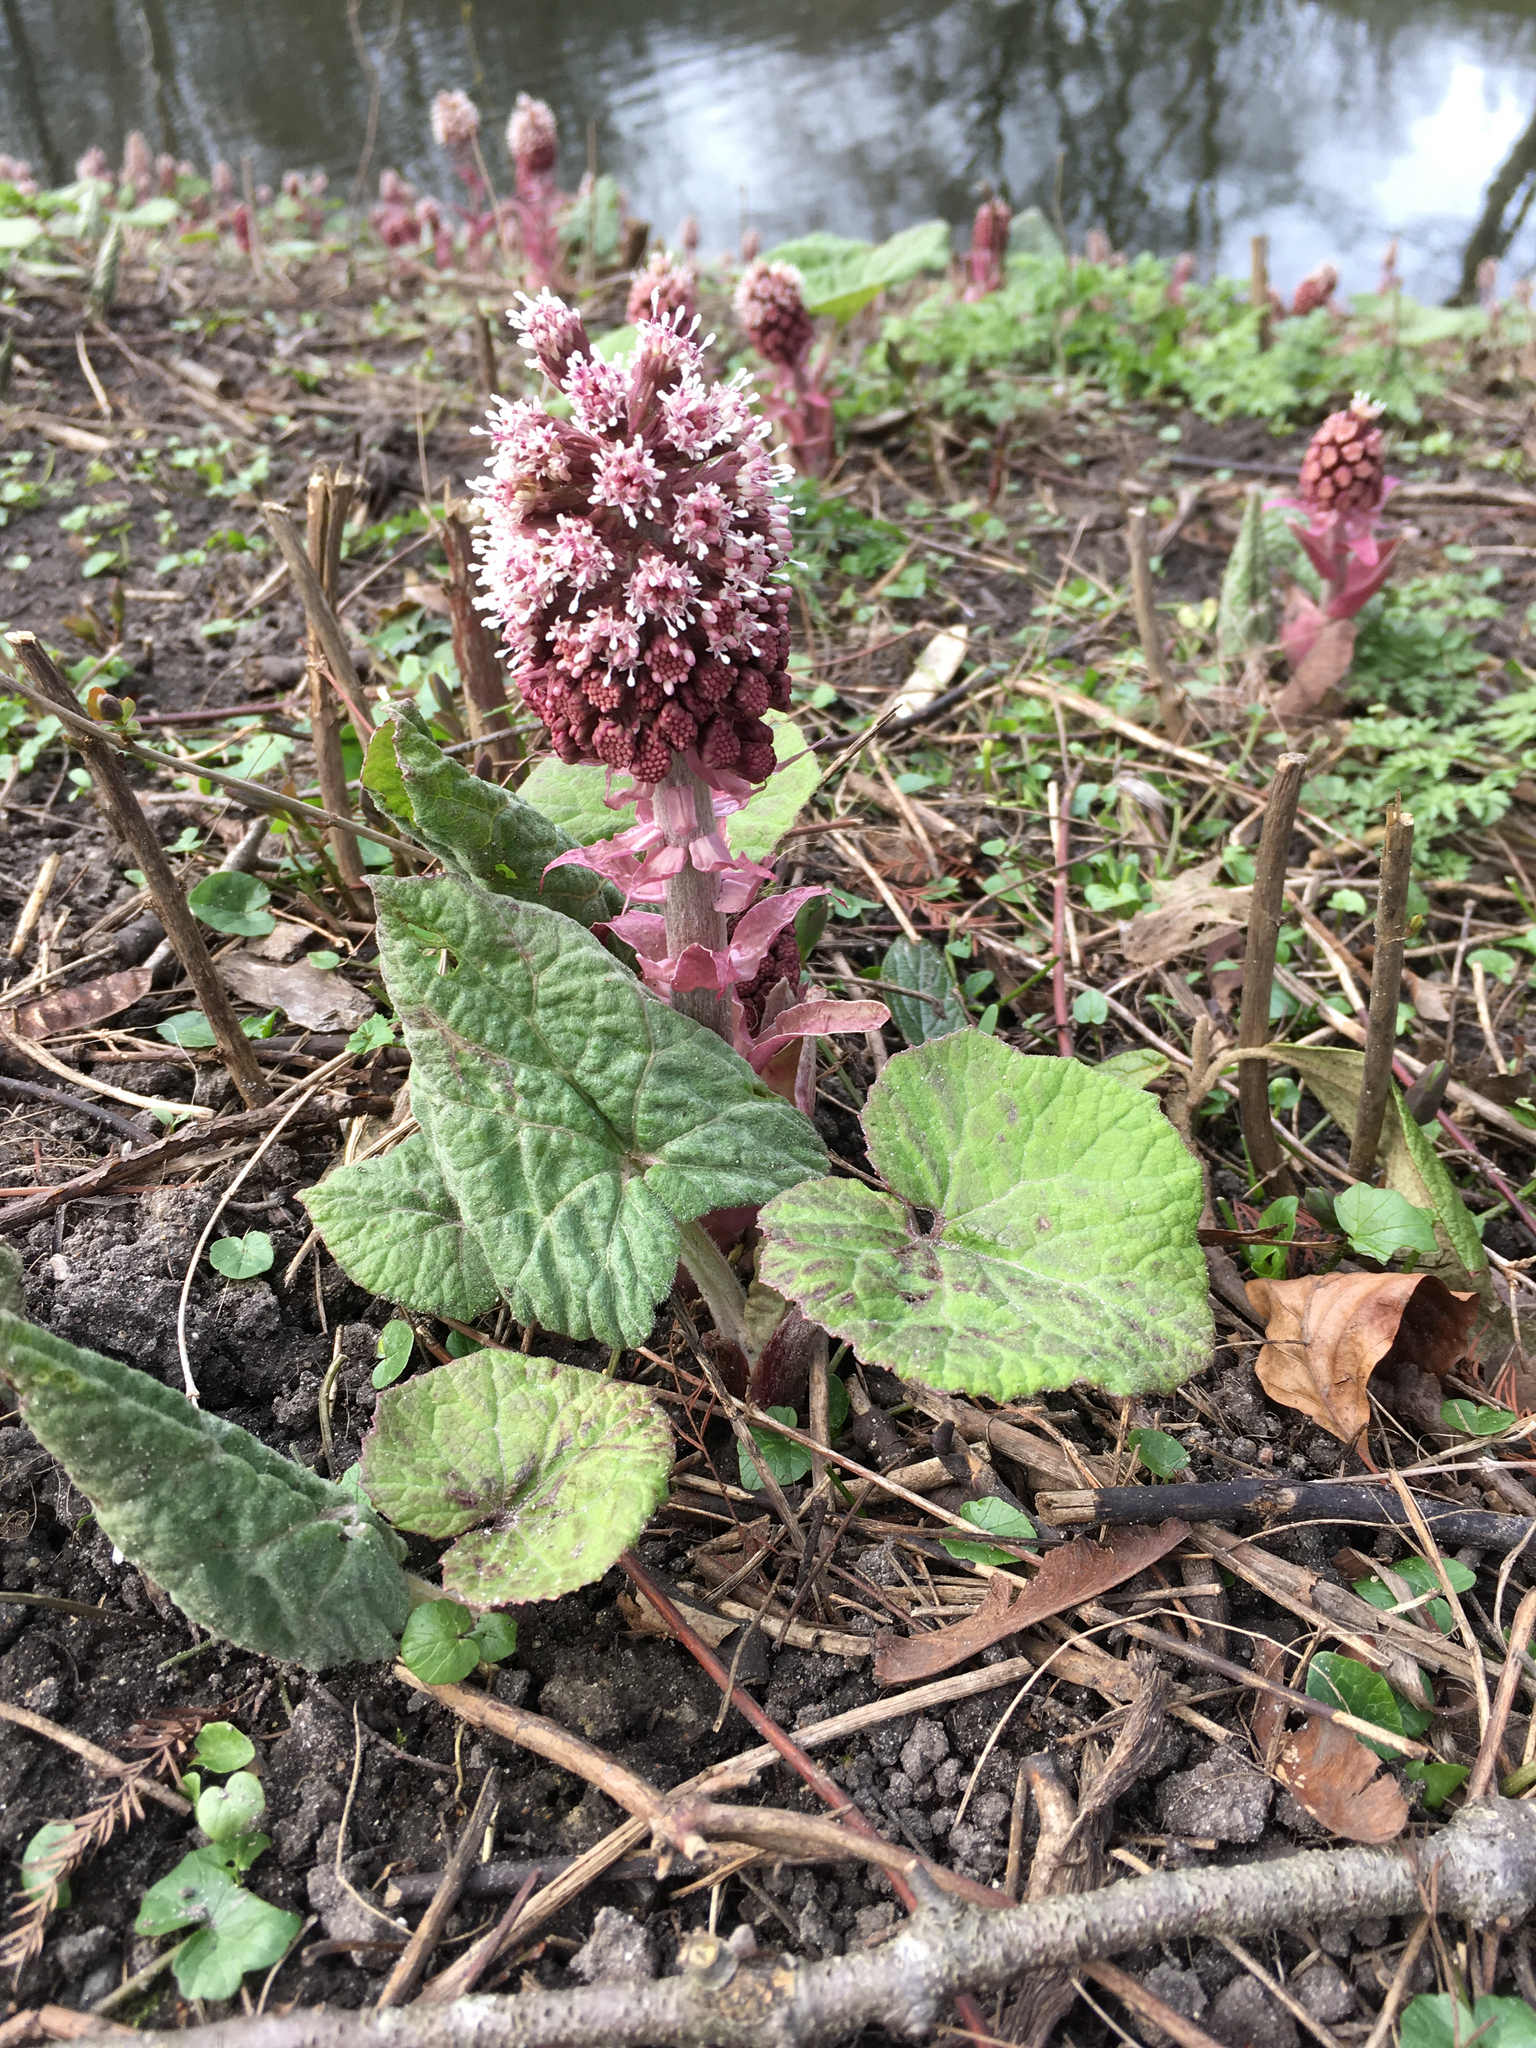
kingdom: Plantae
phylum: Tracheophyta
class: Magnoliopsida
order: Asterales
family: Asteraceae
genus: Petasites
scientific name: Petasites hybridus
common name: Butterbur
